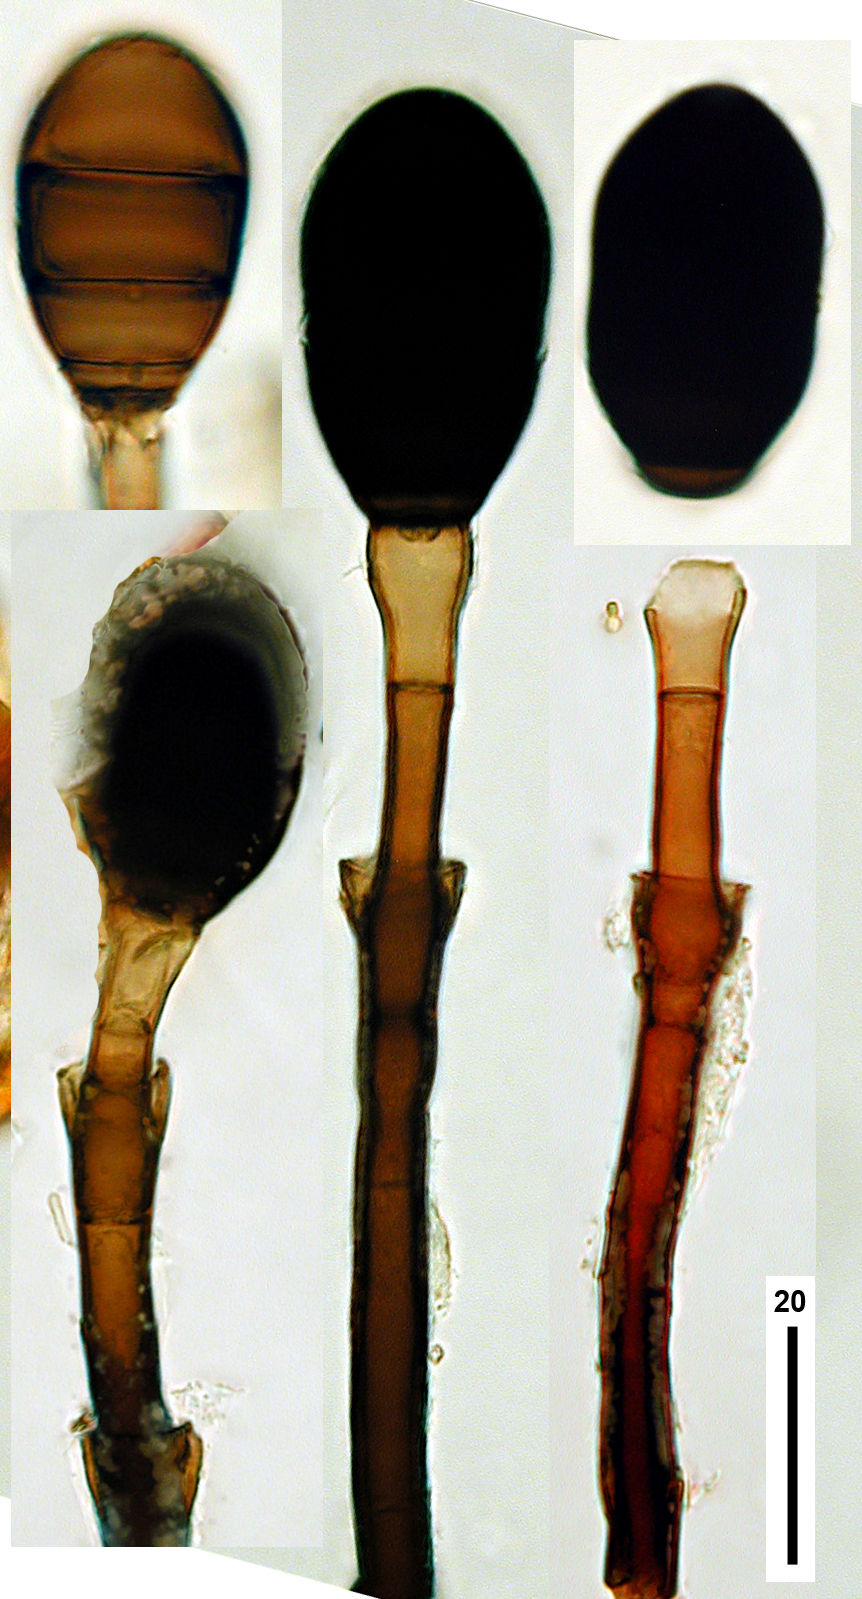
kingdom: Fungi
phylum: Ascomycota
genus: Melanocephala
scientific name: Melanocephala cupulifera
